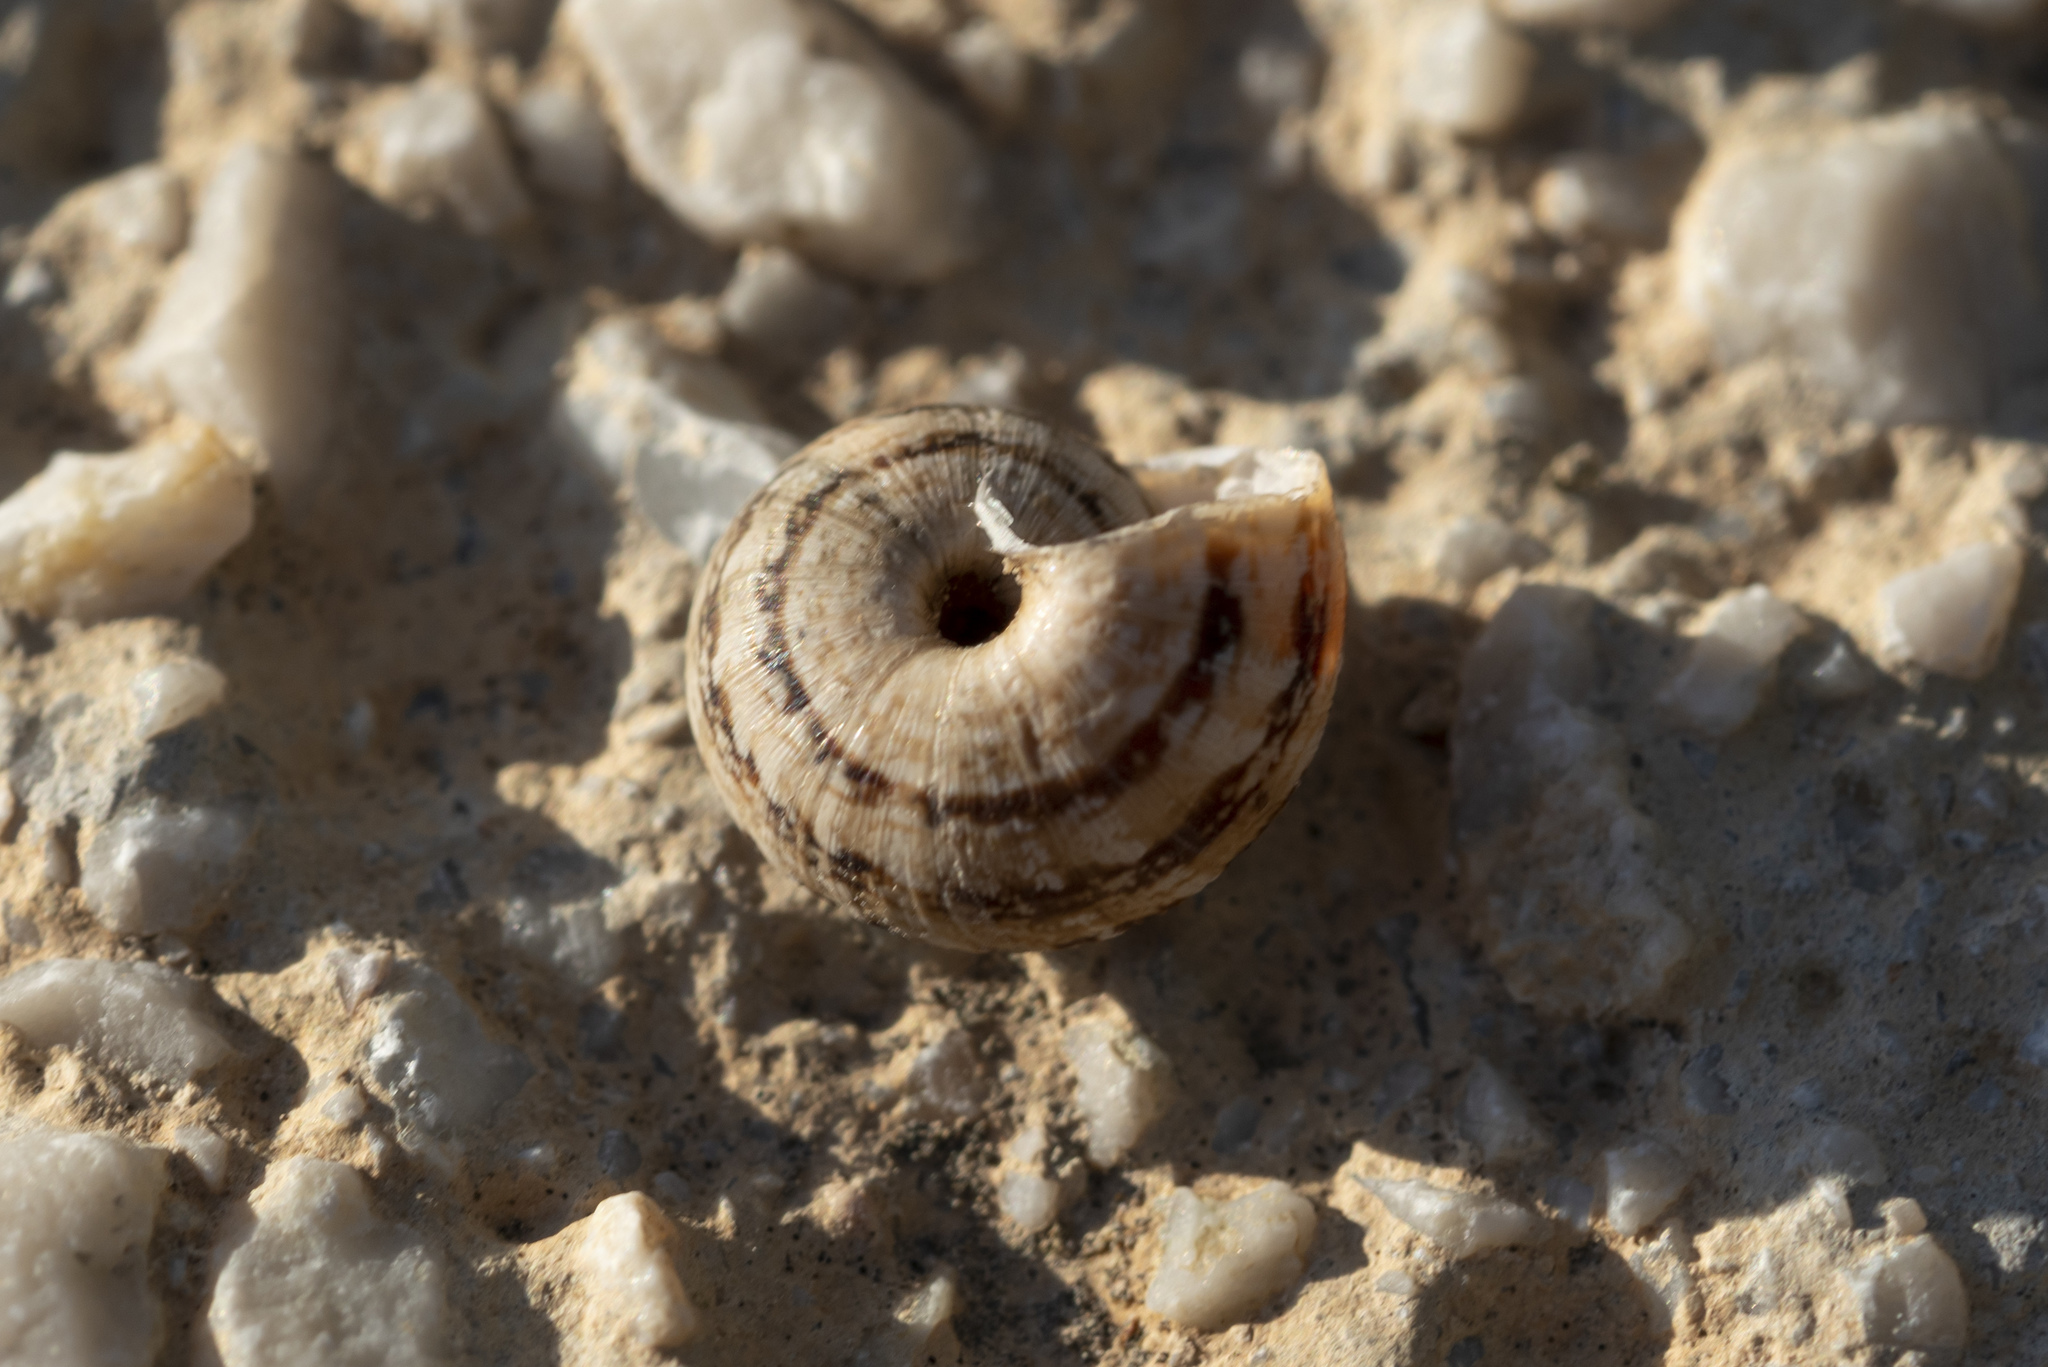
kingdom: Animalia
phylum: Mollusca
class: Gastropoda
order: Stylommatophora
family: Geomitridae
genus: Xeropicta
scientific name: Xeropicta krynickii
